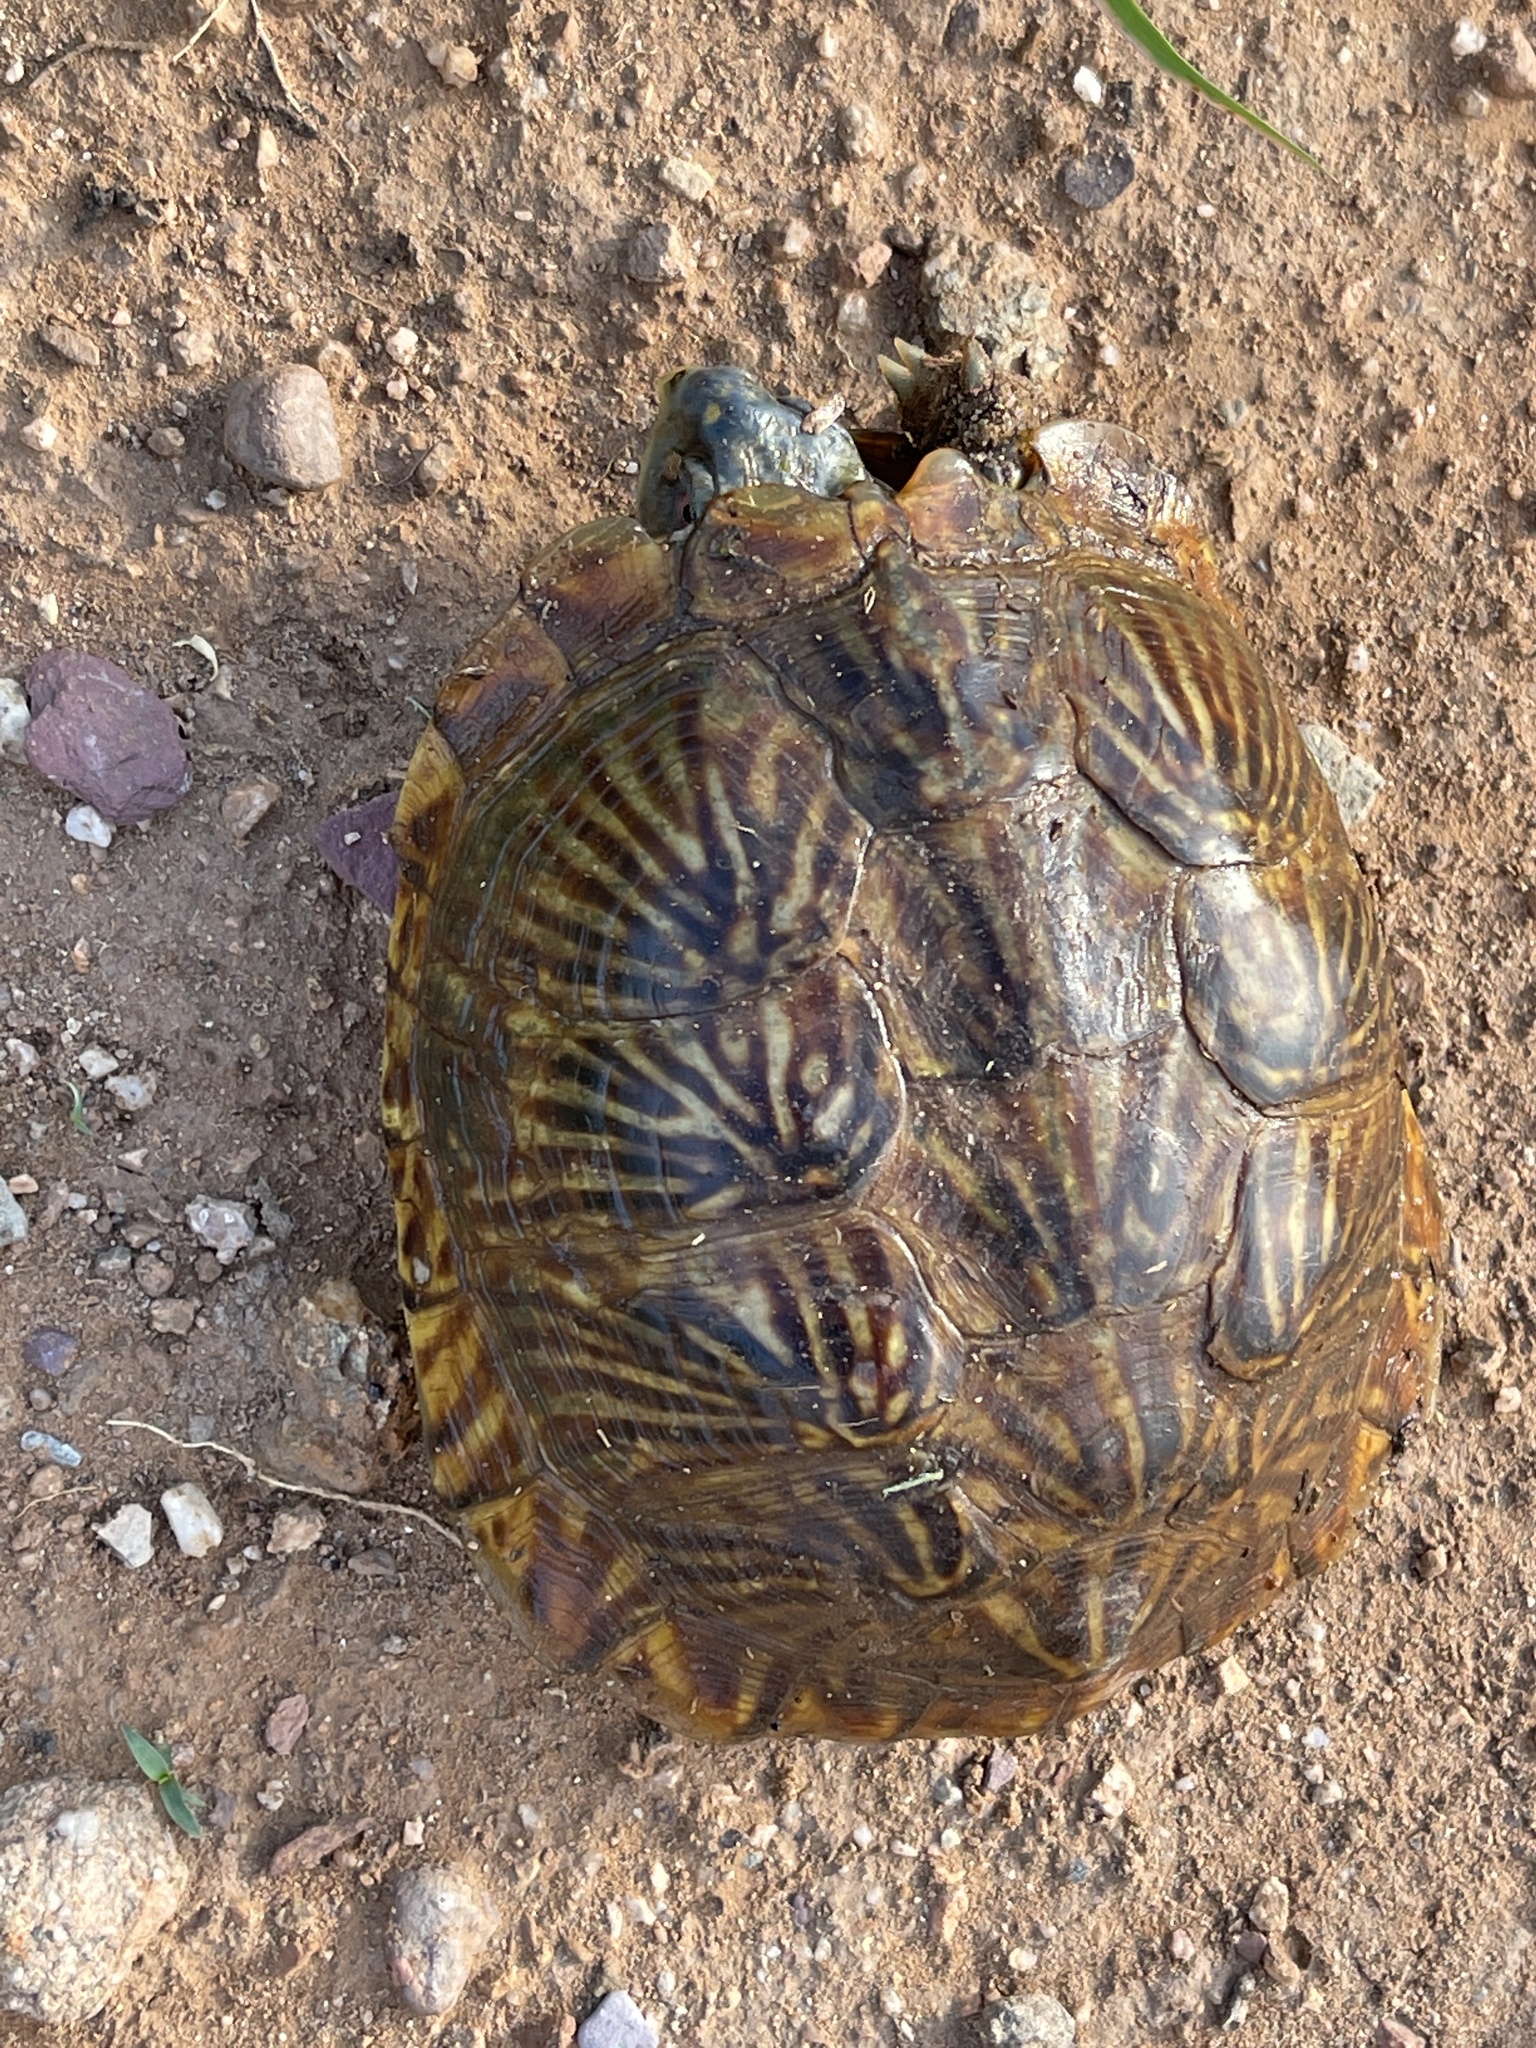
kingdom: Animalia
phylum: Chordata
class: Testudines
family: Emydidae
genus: Terrapene
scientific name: Terrapene ornata
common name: Western box turtle
